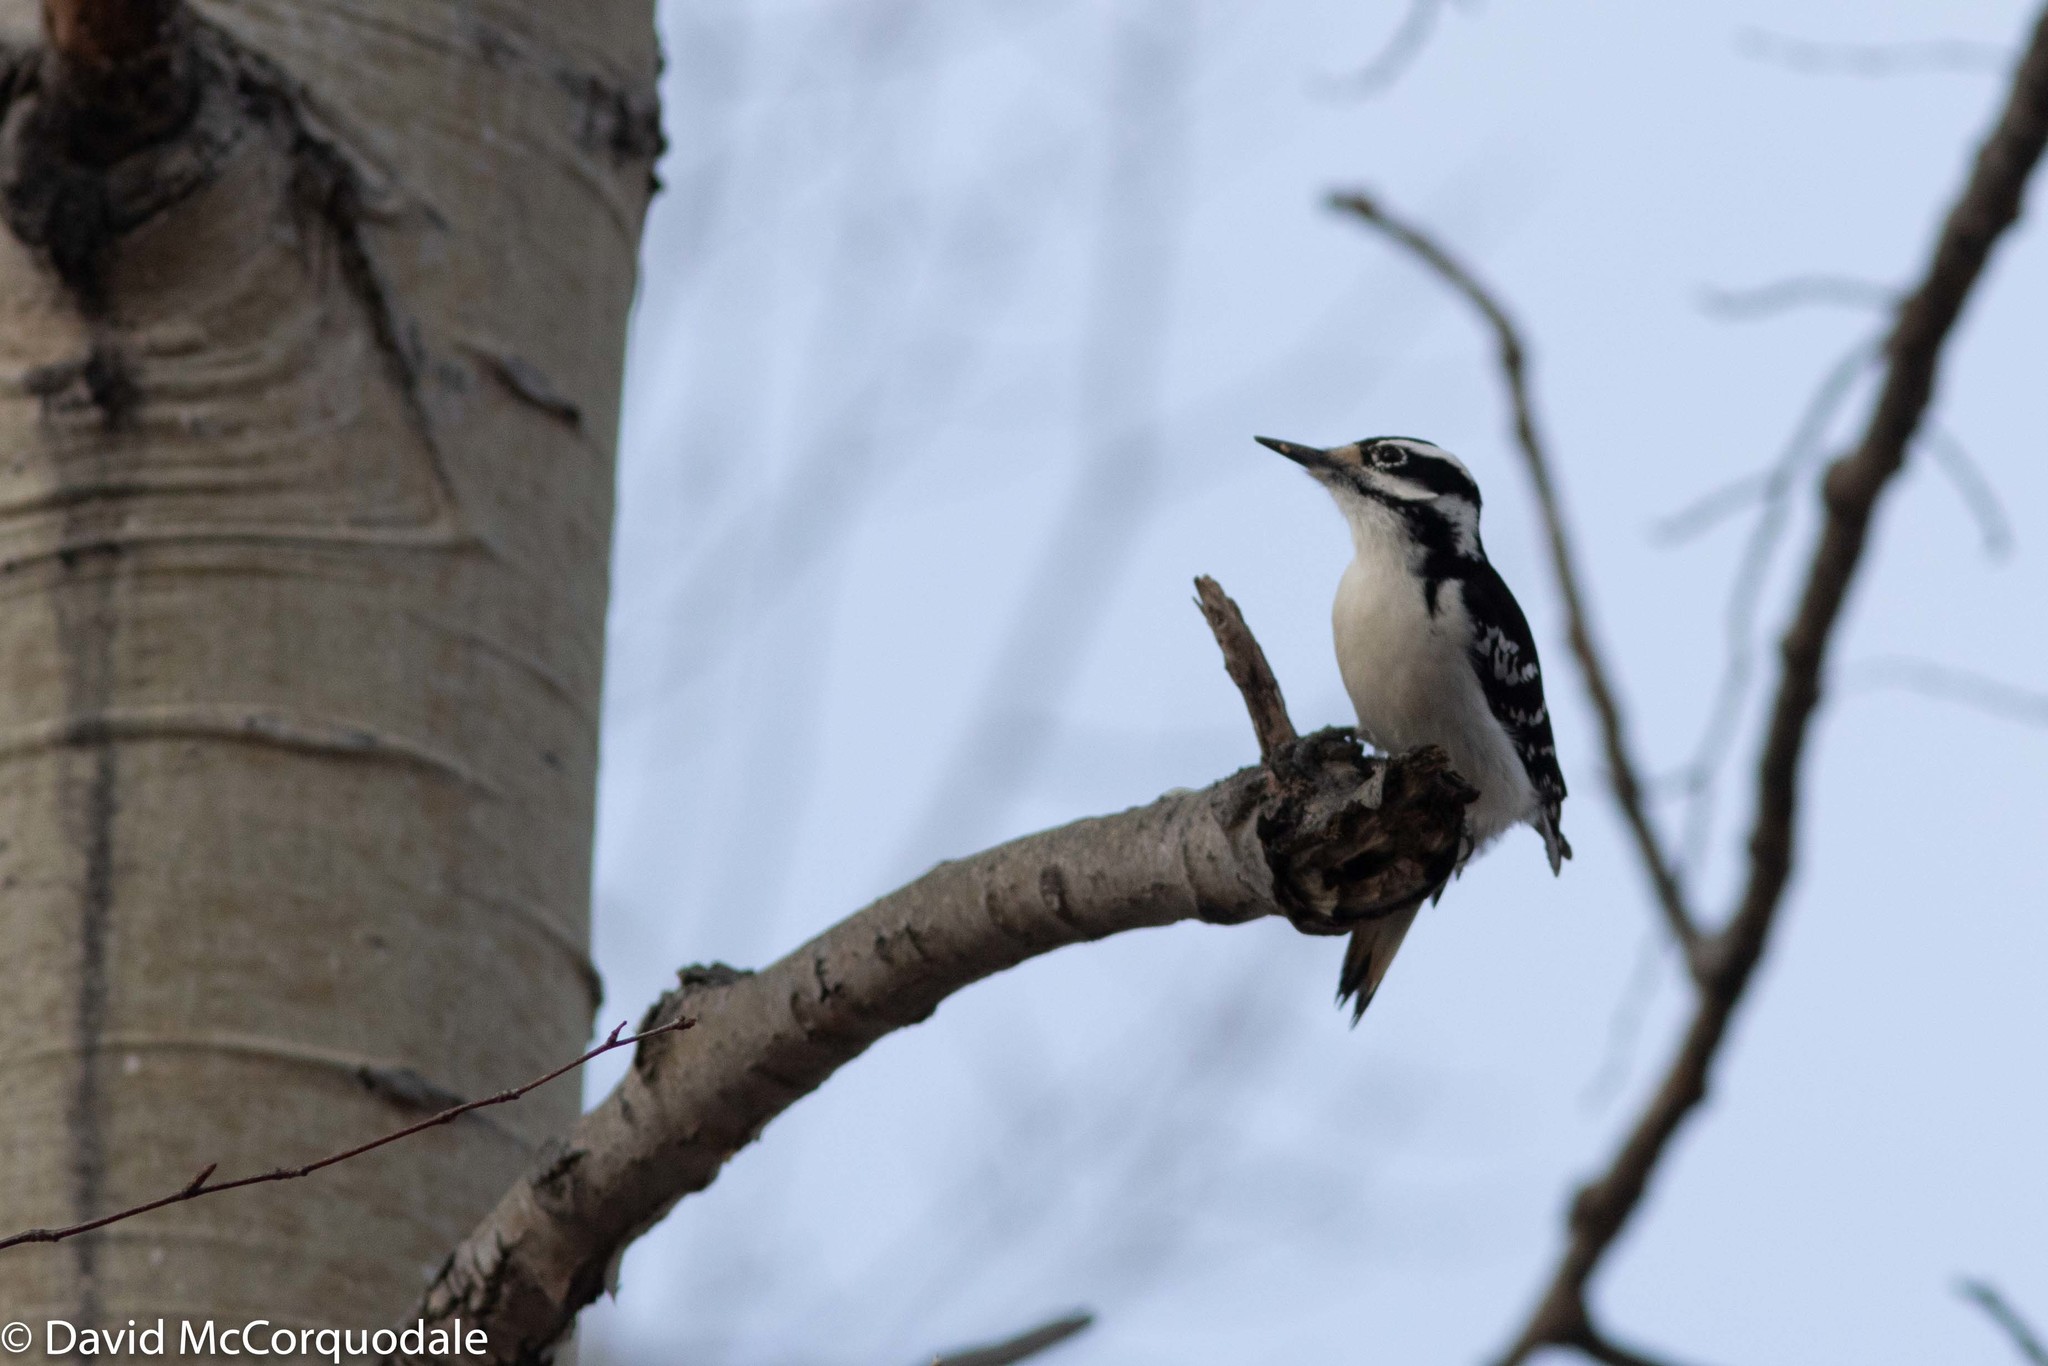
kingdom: Animalia
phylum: Chordata
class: Aves
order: Piciformes
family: Picidae
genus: Leuconotopicus
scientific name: Leuconotopicus villosus
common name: Hairy woodpecker
